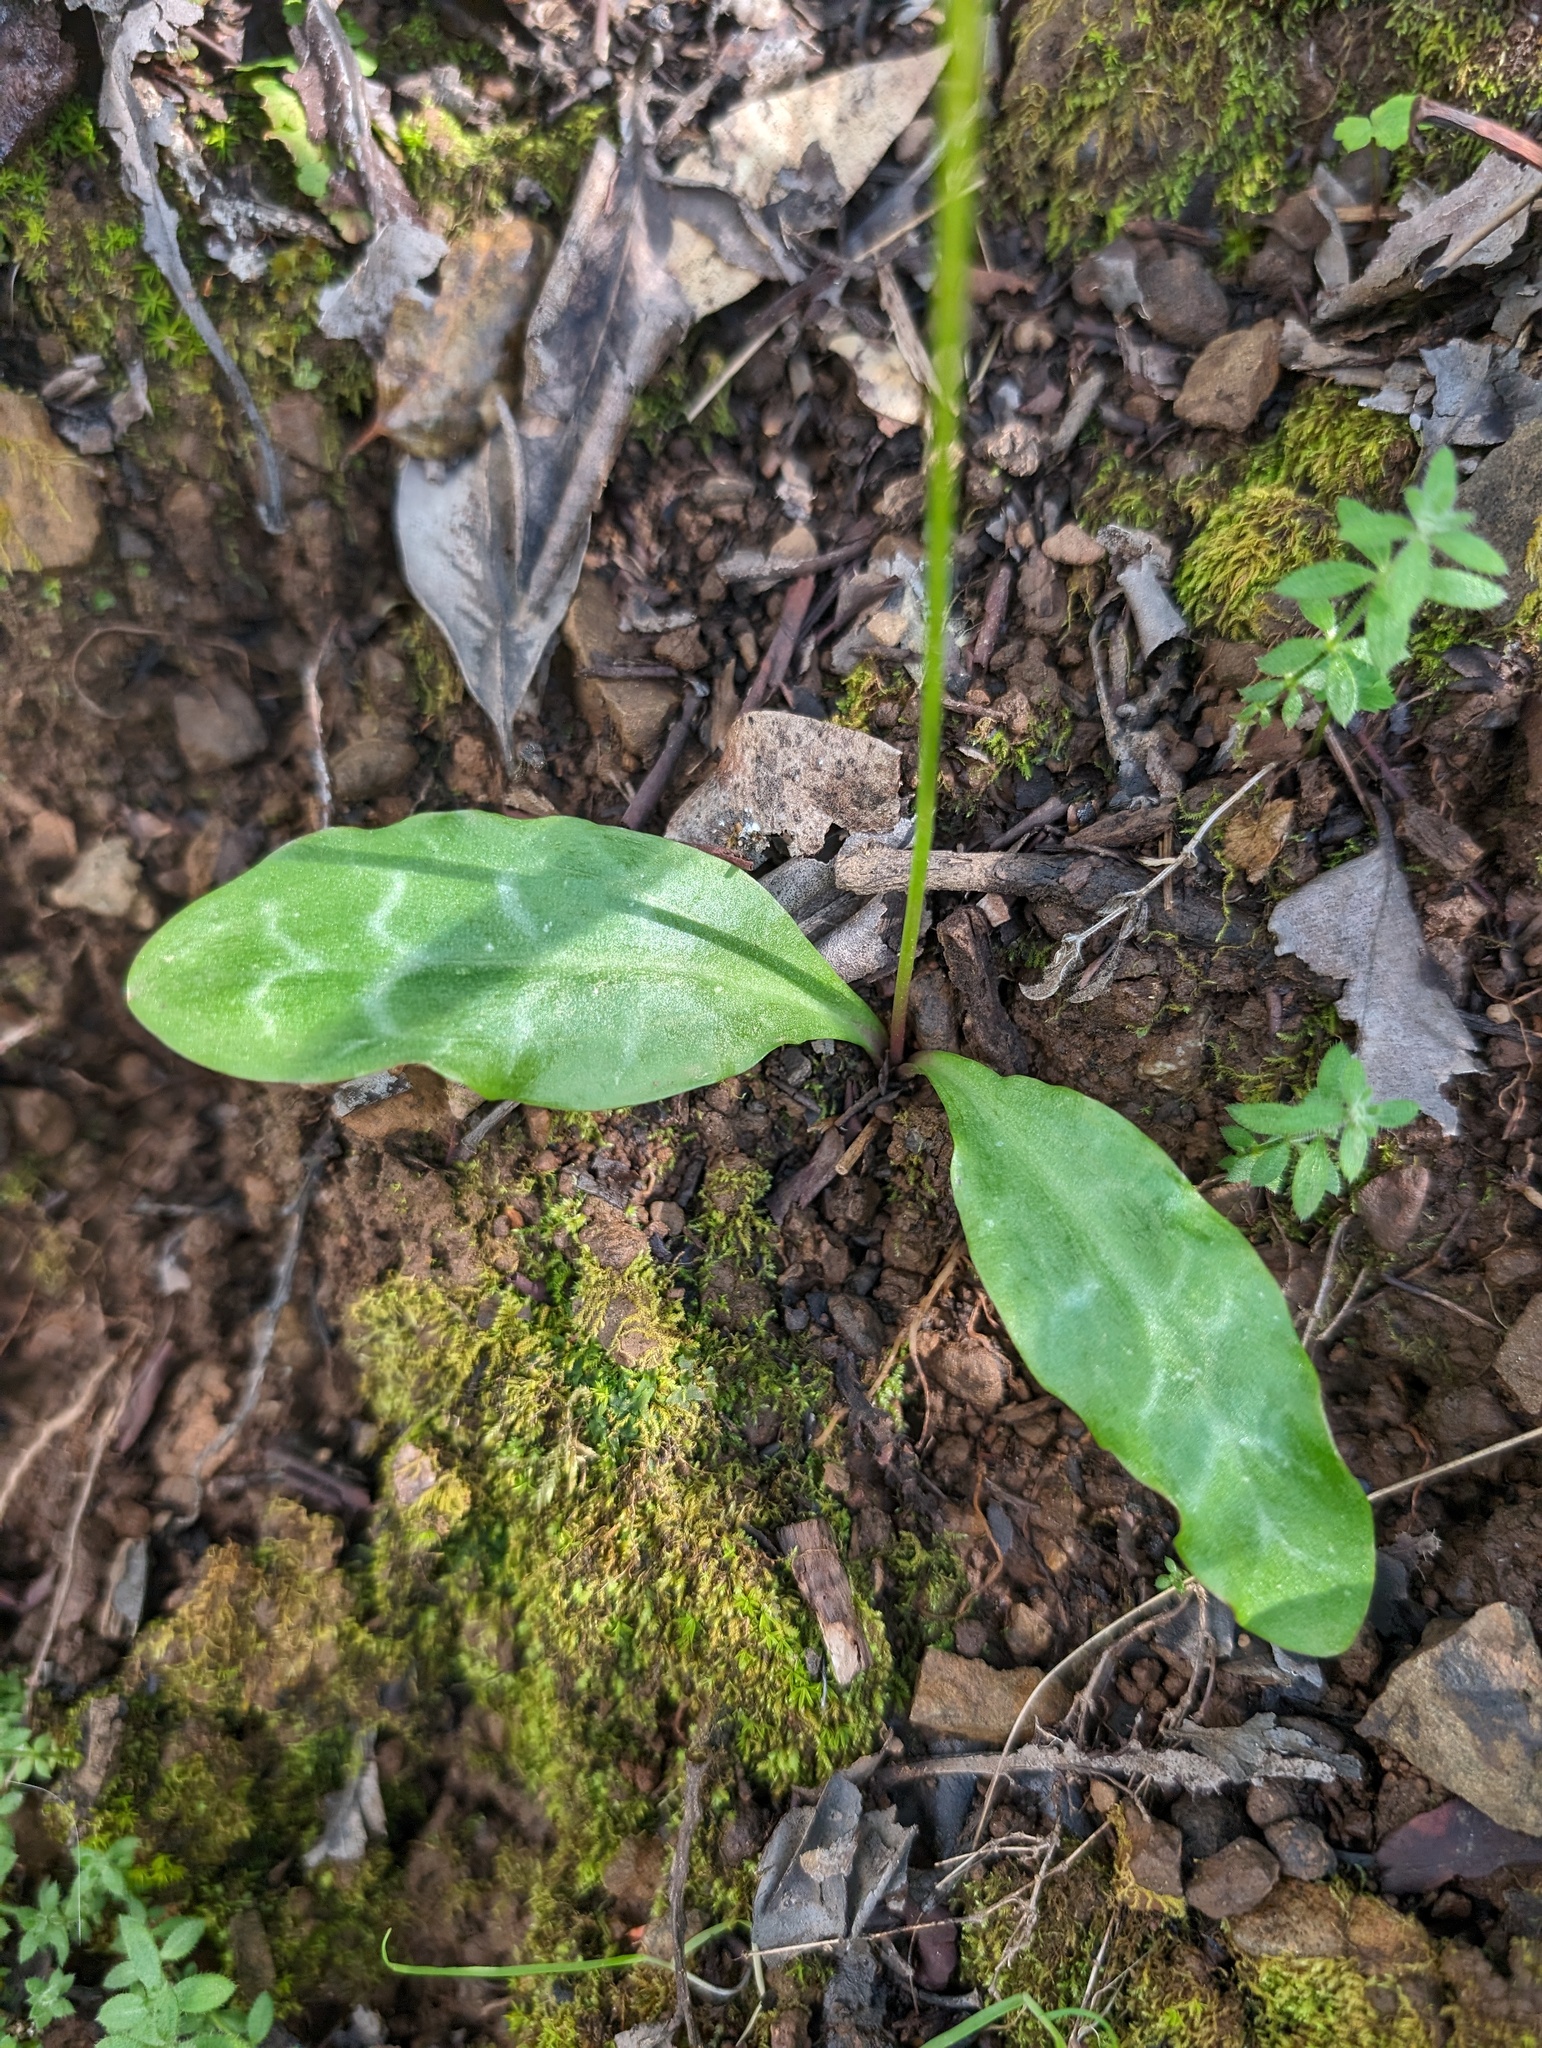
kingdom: Plantae
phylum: Tracheophyta
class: Liliopsida
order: Liliales
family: Liliaceae
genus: Erythronium
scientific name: Erythronium californicum
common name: Fawn-lily
